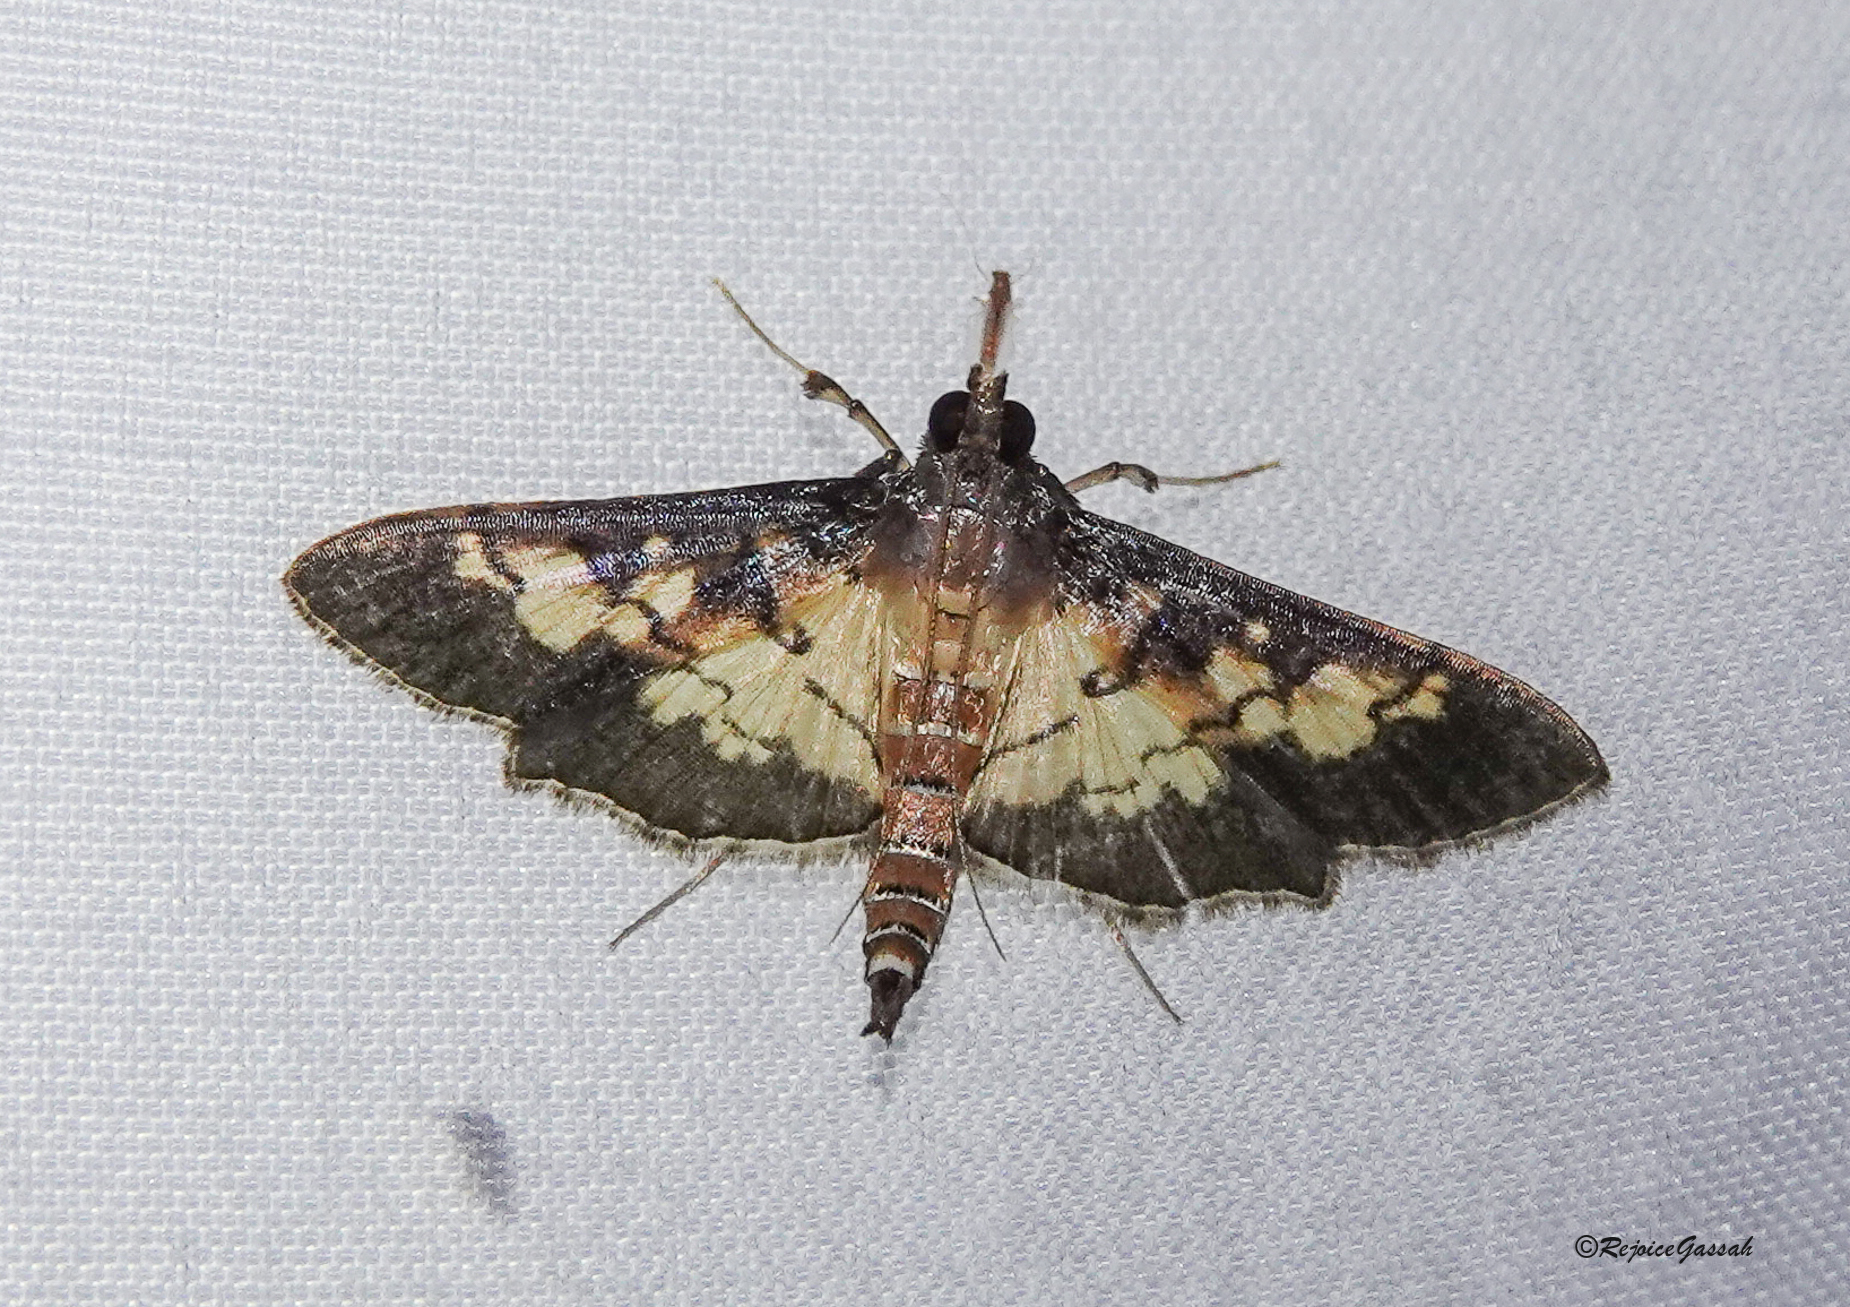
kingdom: Animalia
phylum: Arthropoda
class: Insecta
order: Lepidoptera
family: Crambidae
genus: Uresiphita
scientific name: Uresiphita quinquigera
